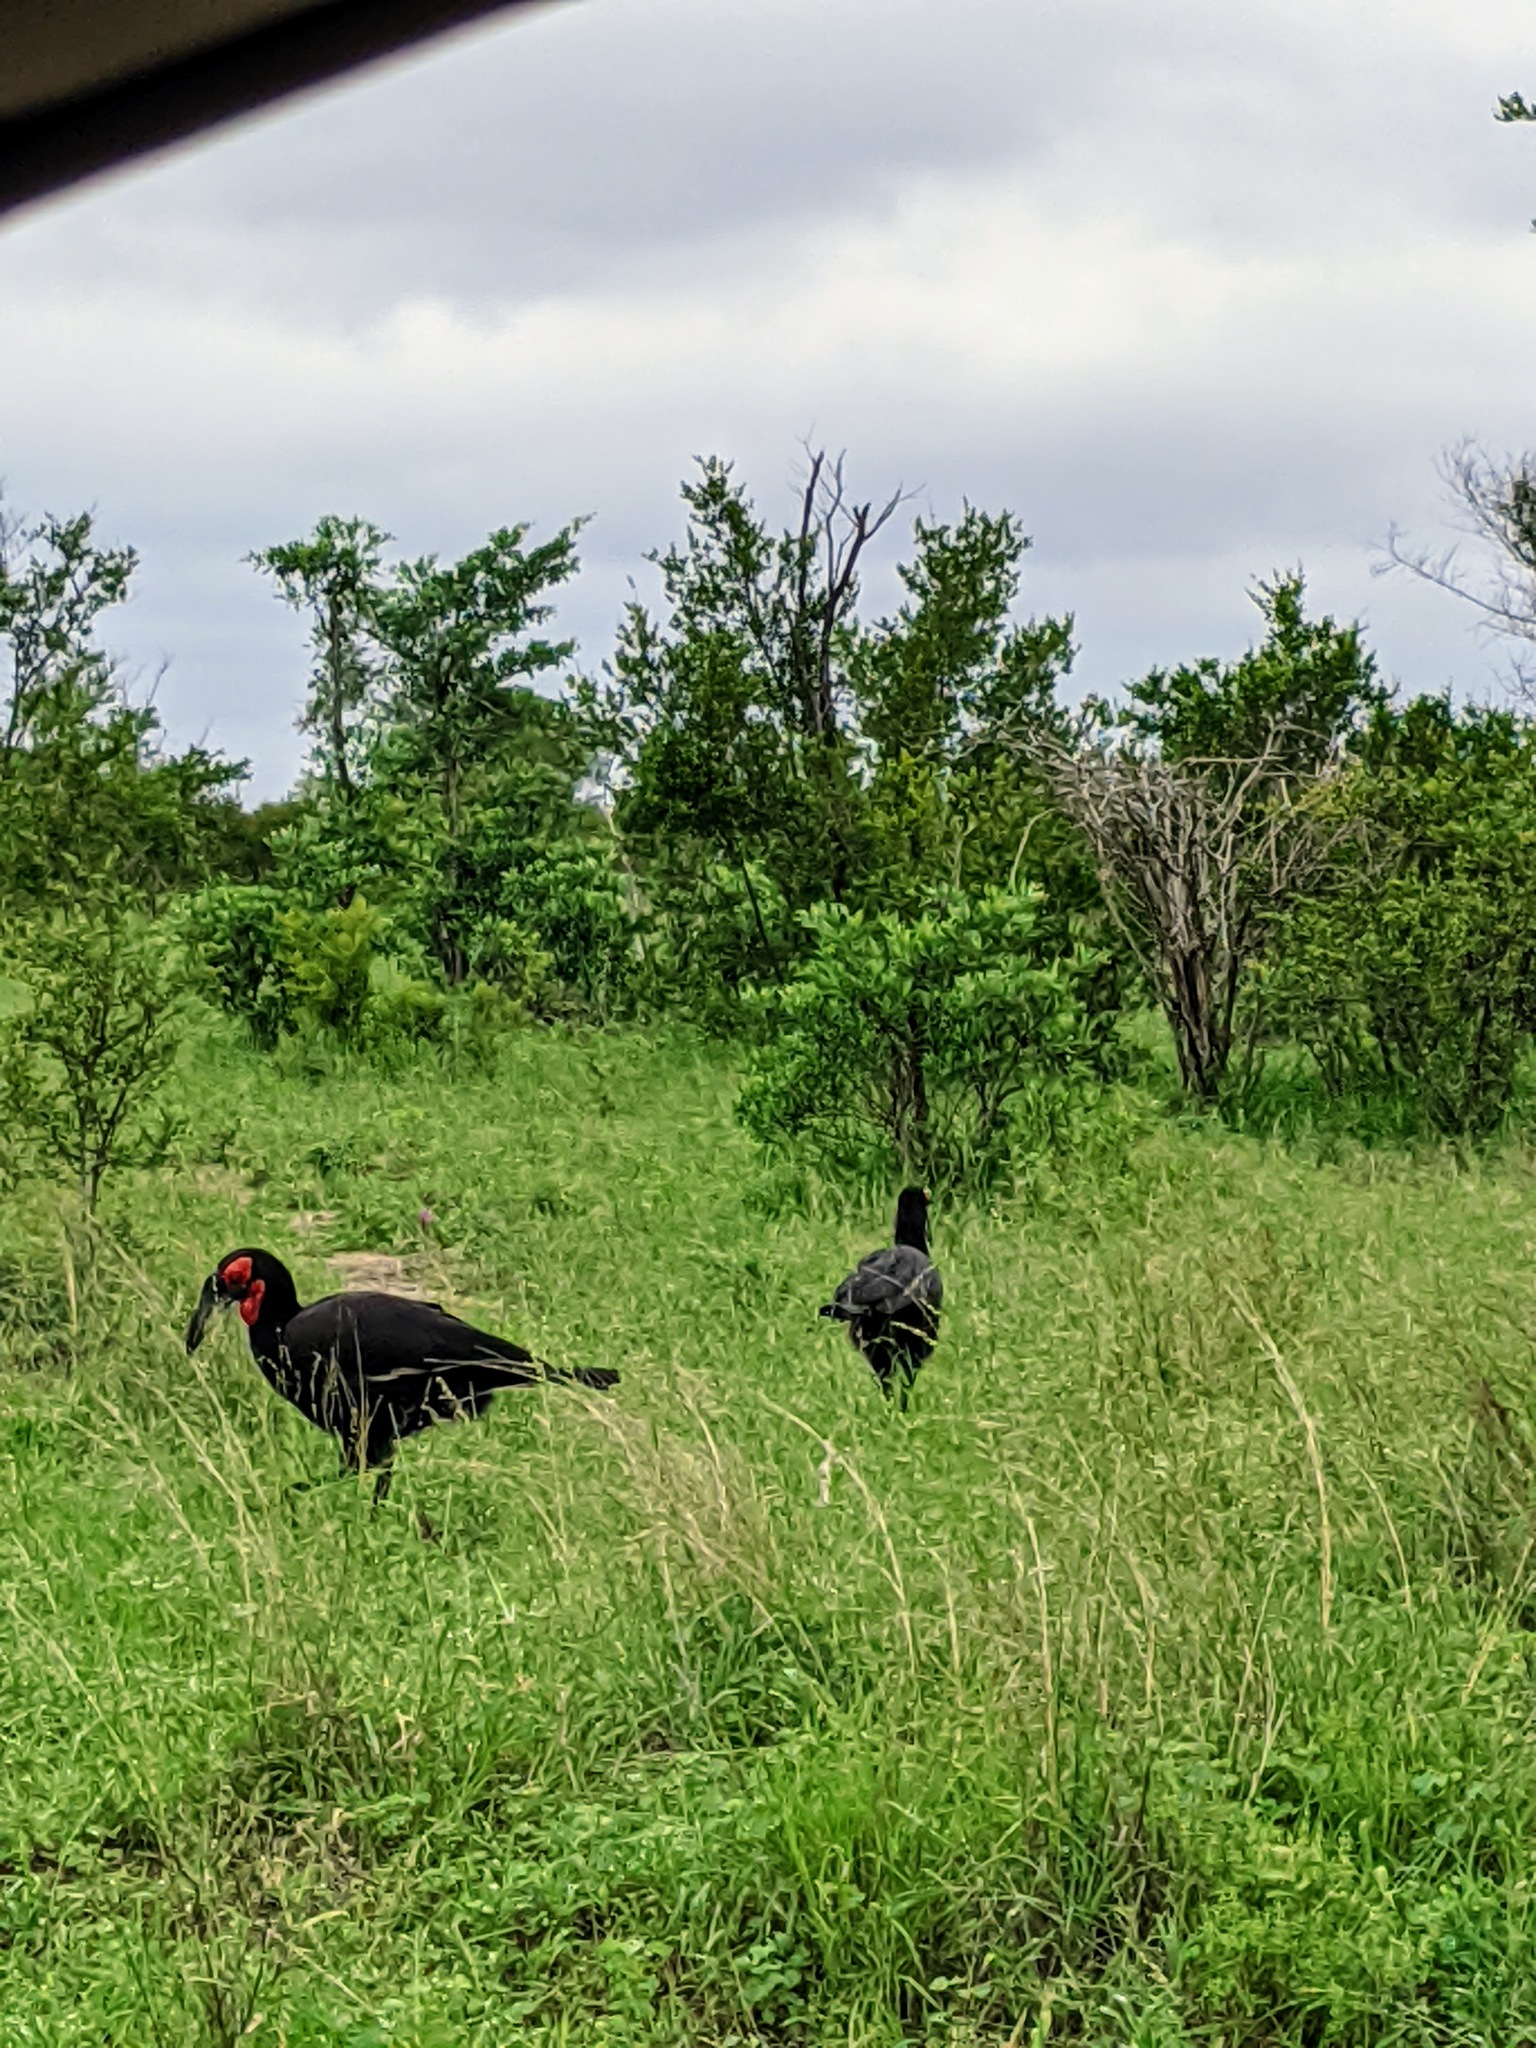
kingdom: Animalia
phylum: Chordata
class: Aves
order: Bucerotiformes
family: Bucorvidae
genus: Bucorvus
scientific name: Bucorvus leadbeateri
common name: Southern ground-hornbill
